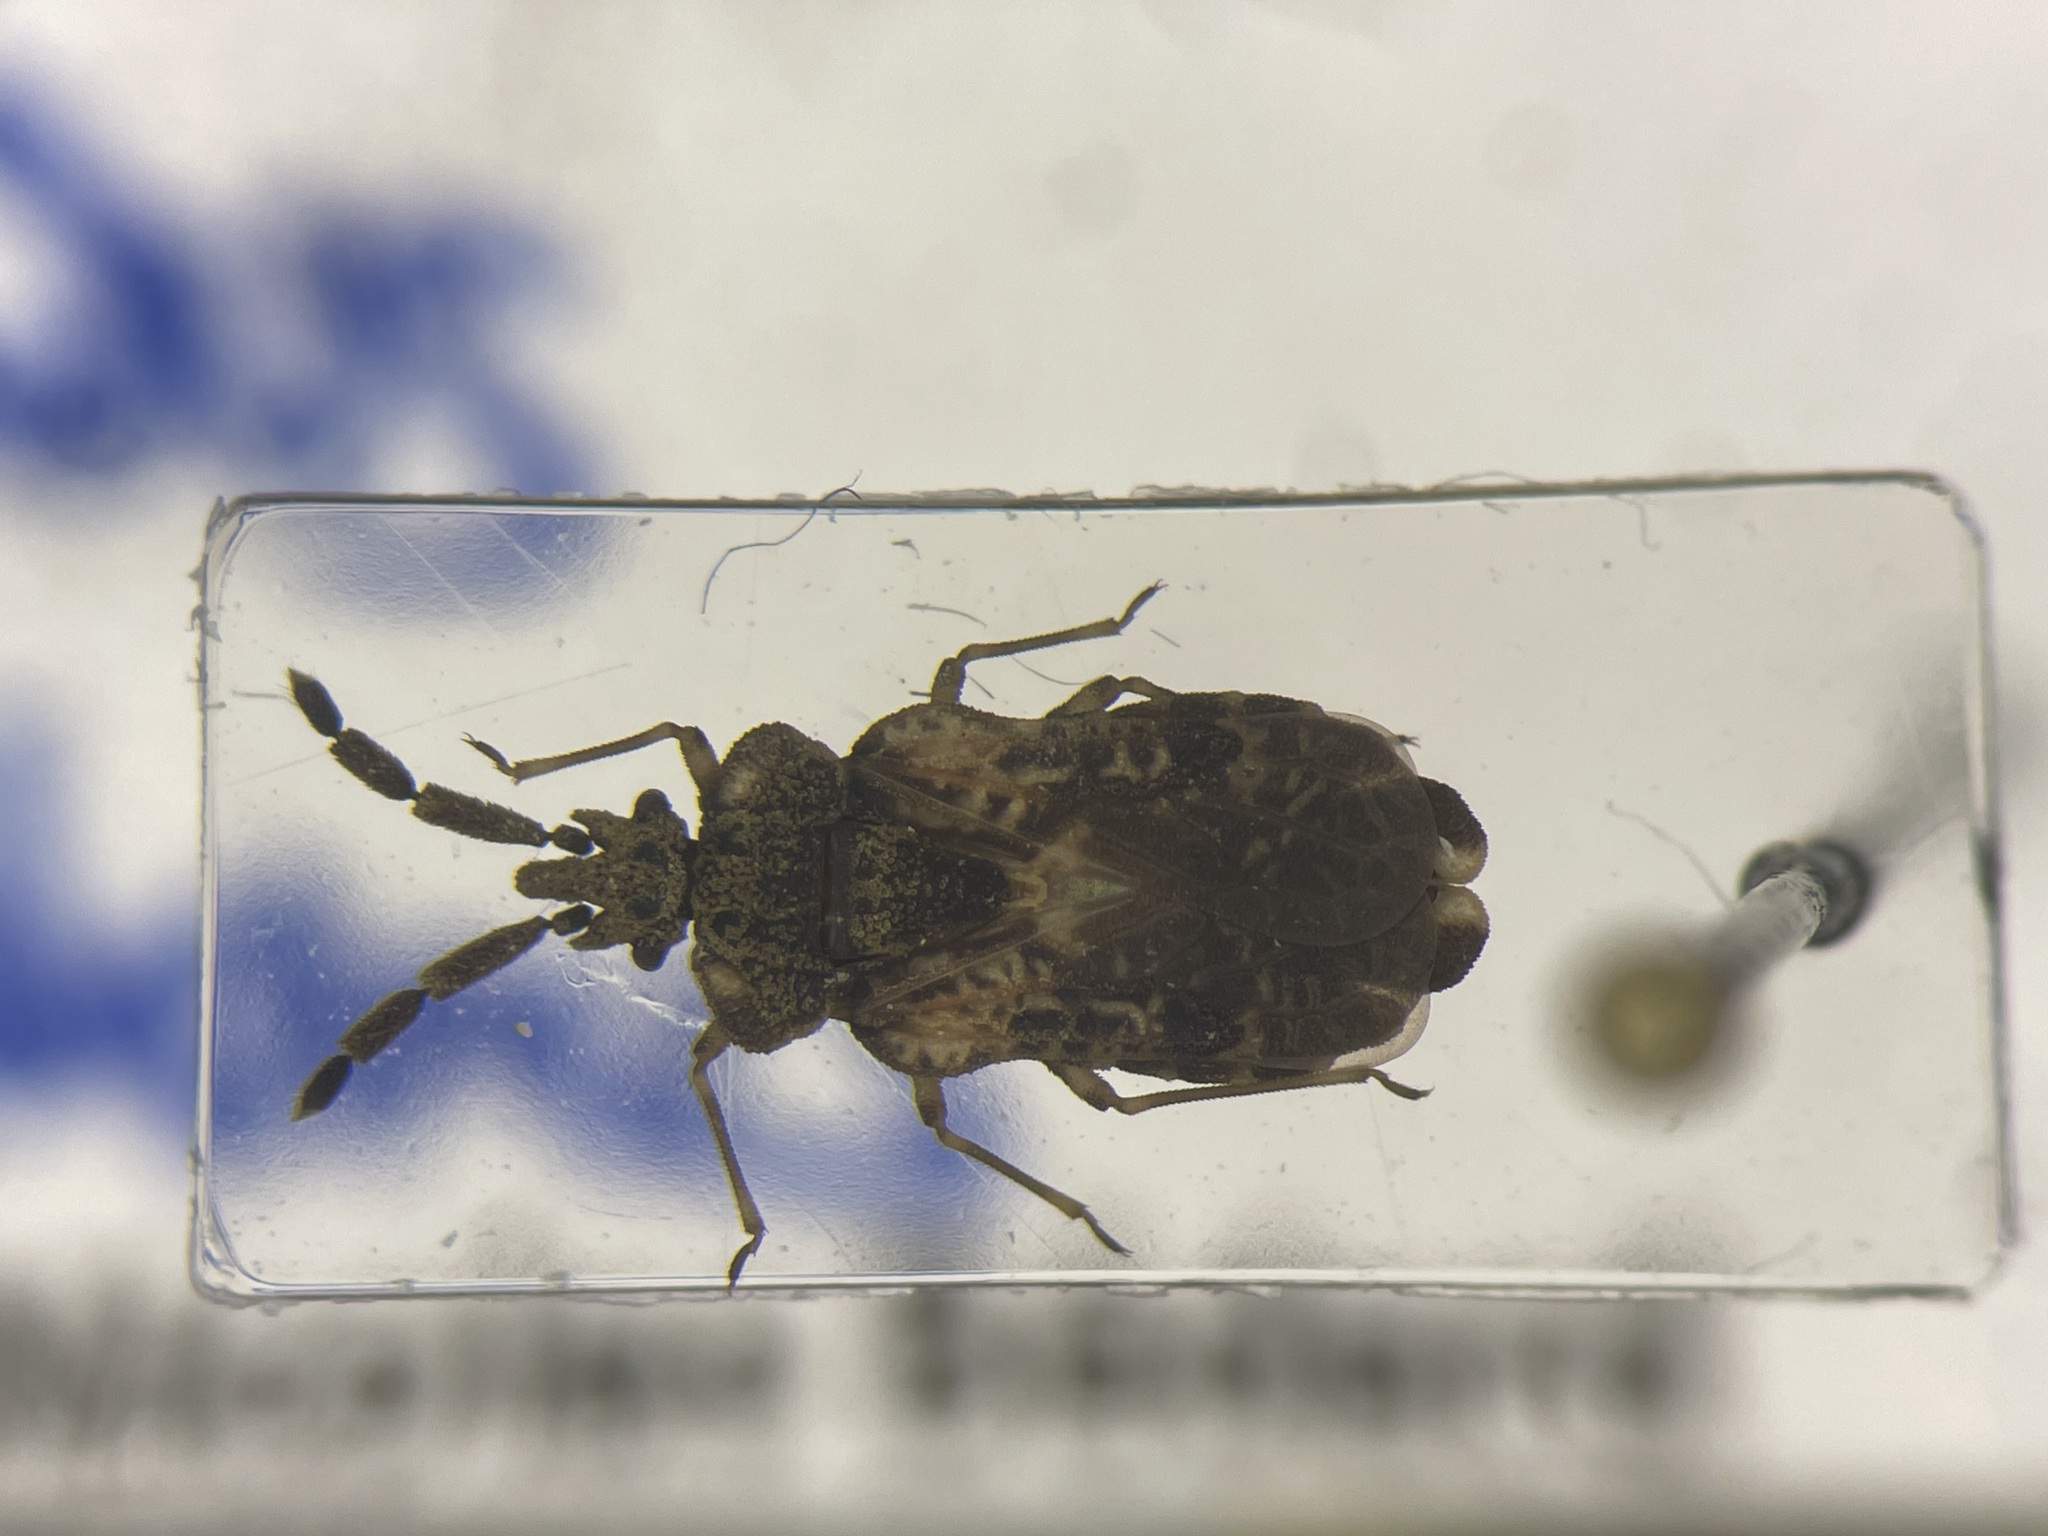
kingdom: Animalia
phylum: Arthropoda
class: Insecta
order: Hemiptera
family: Aradidae
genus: Aradus
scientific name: Aradus implanus
